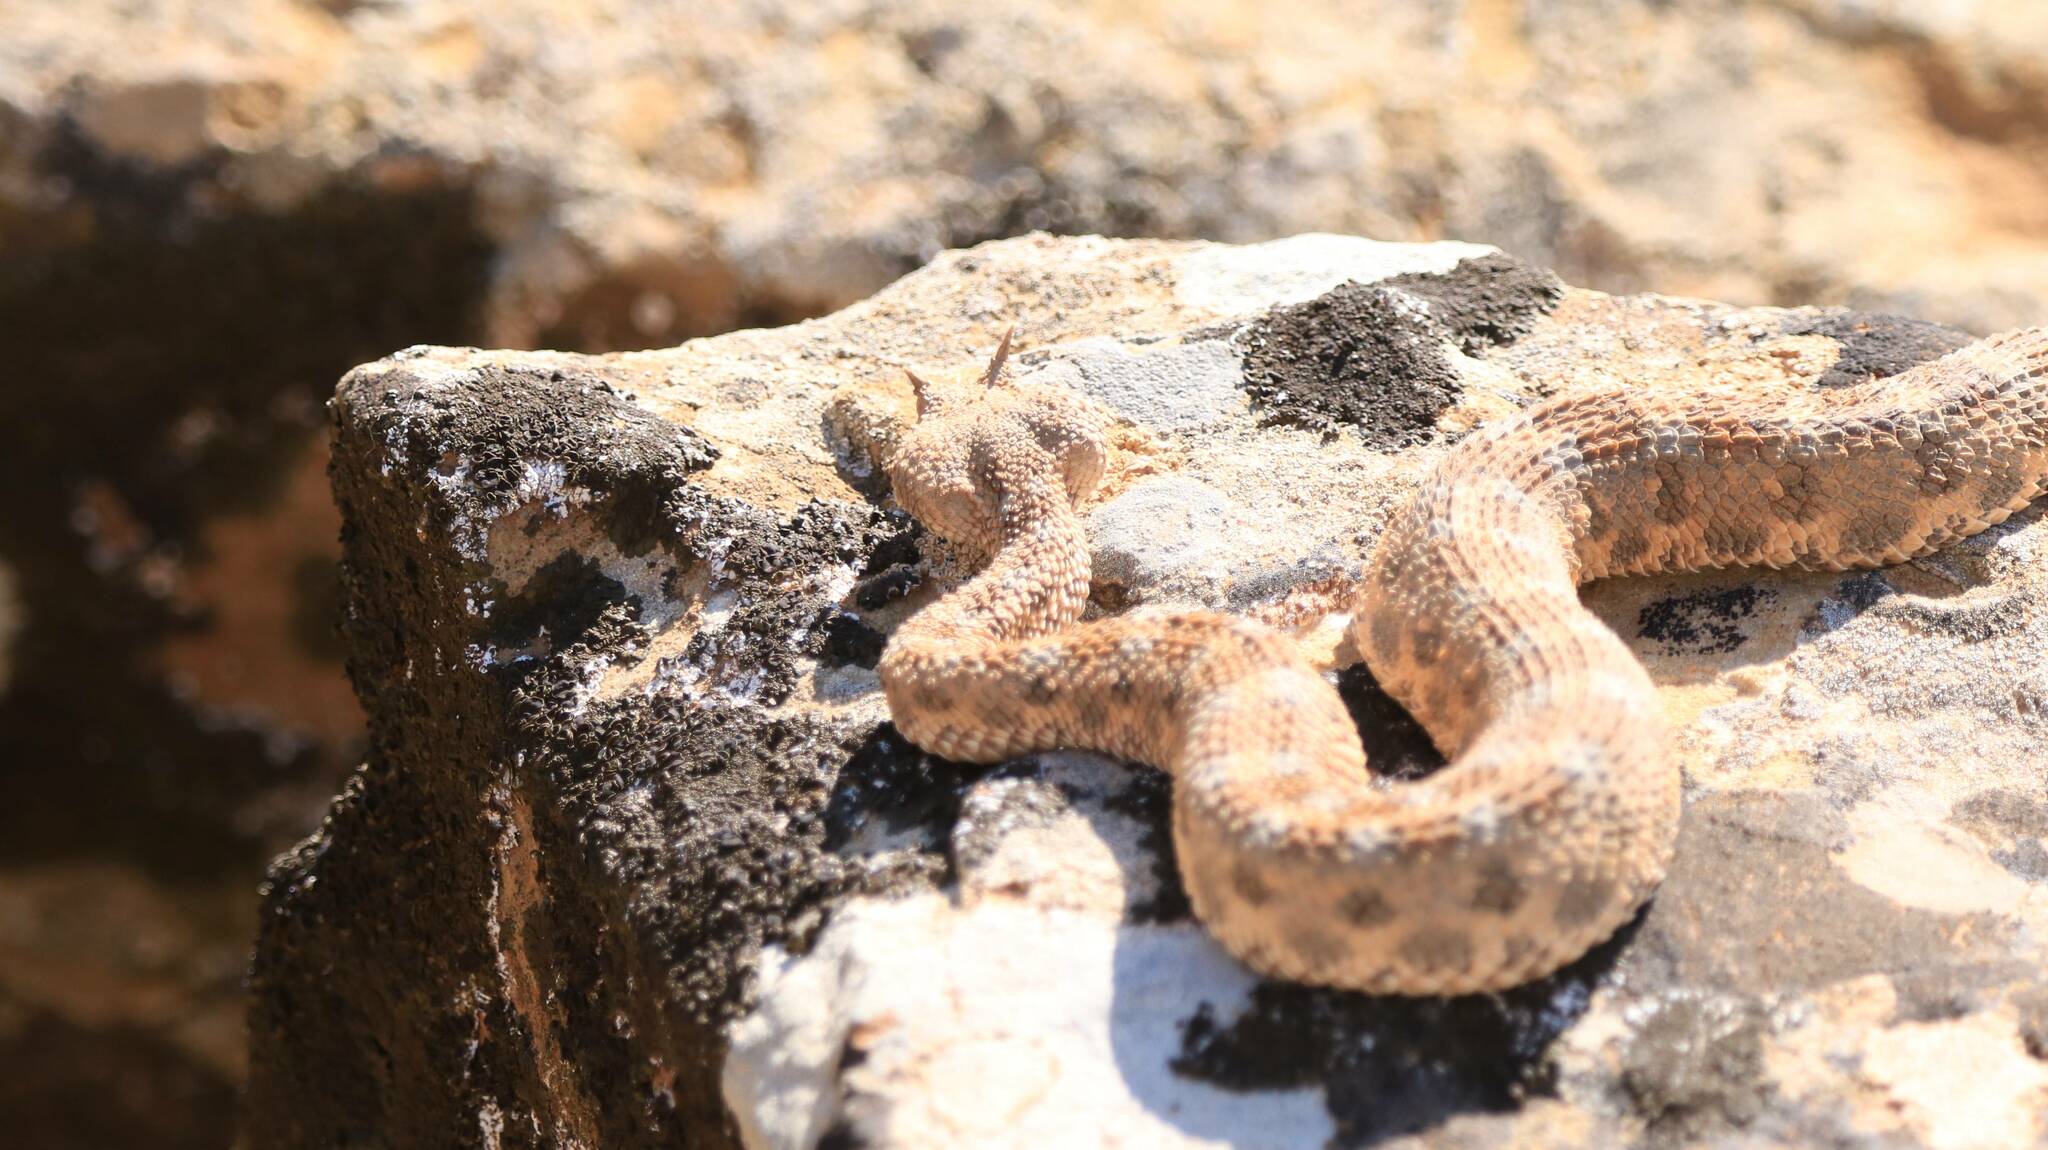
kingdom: Animalia
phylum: Chordata
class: Squamata
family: Viperidae
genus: Cerastes
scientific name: Cerastes cerastes
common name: Desert horned viper
